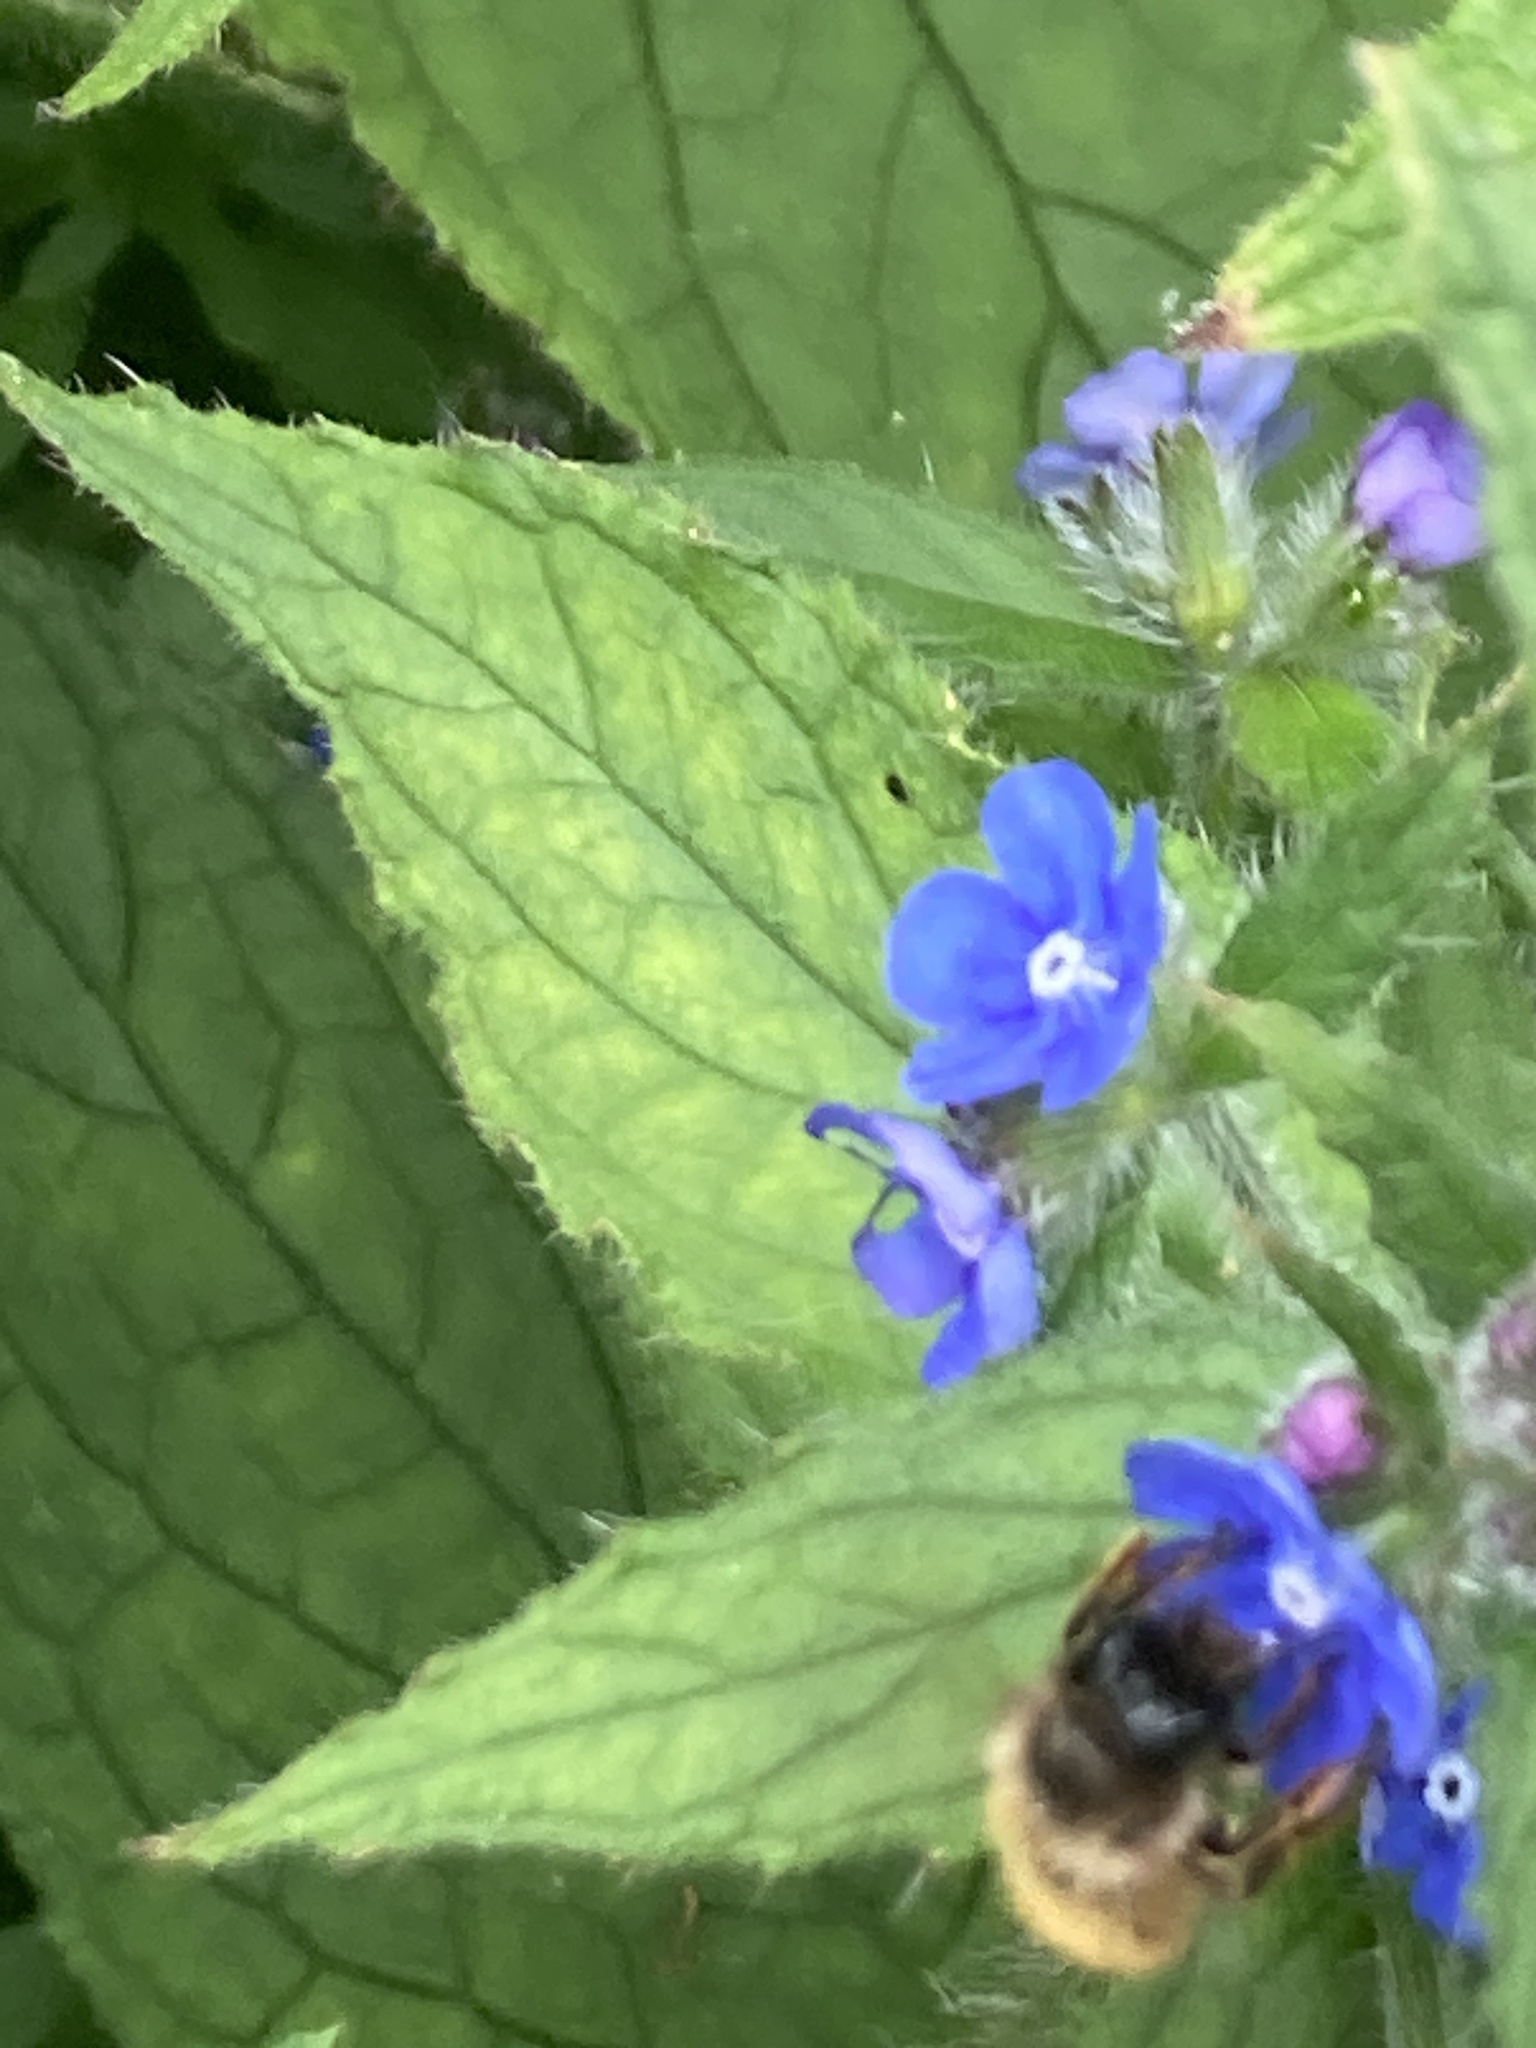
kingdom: Animalia
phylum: Arthropoda
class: Insecta
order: Hymenoptera
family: Megachilidae
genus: Osmia
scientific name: Osmia bicornis
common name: Red mason bee
